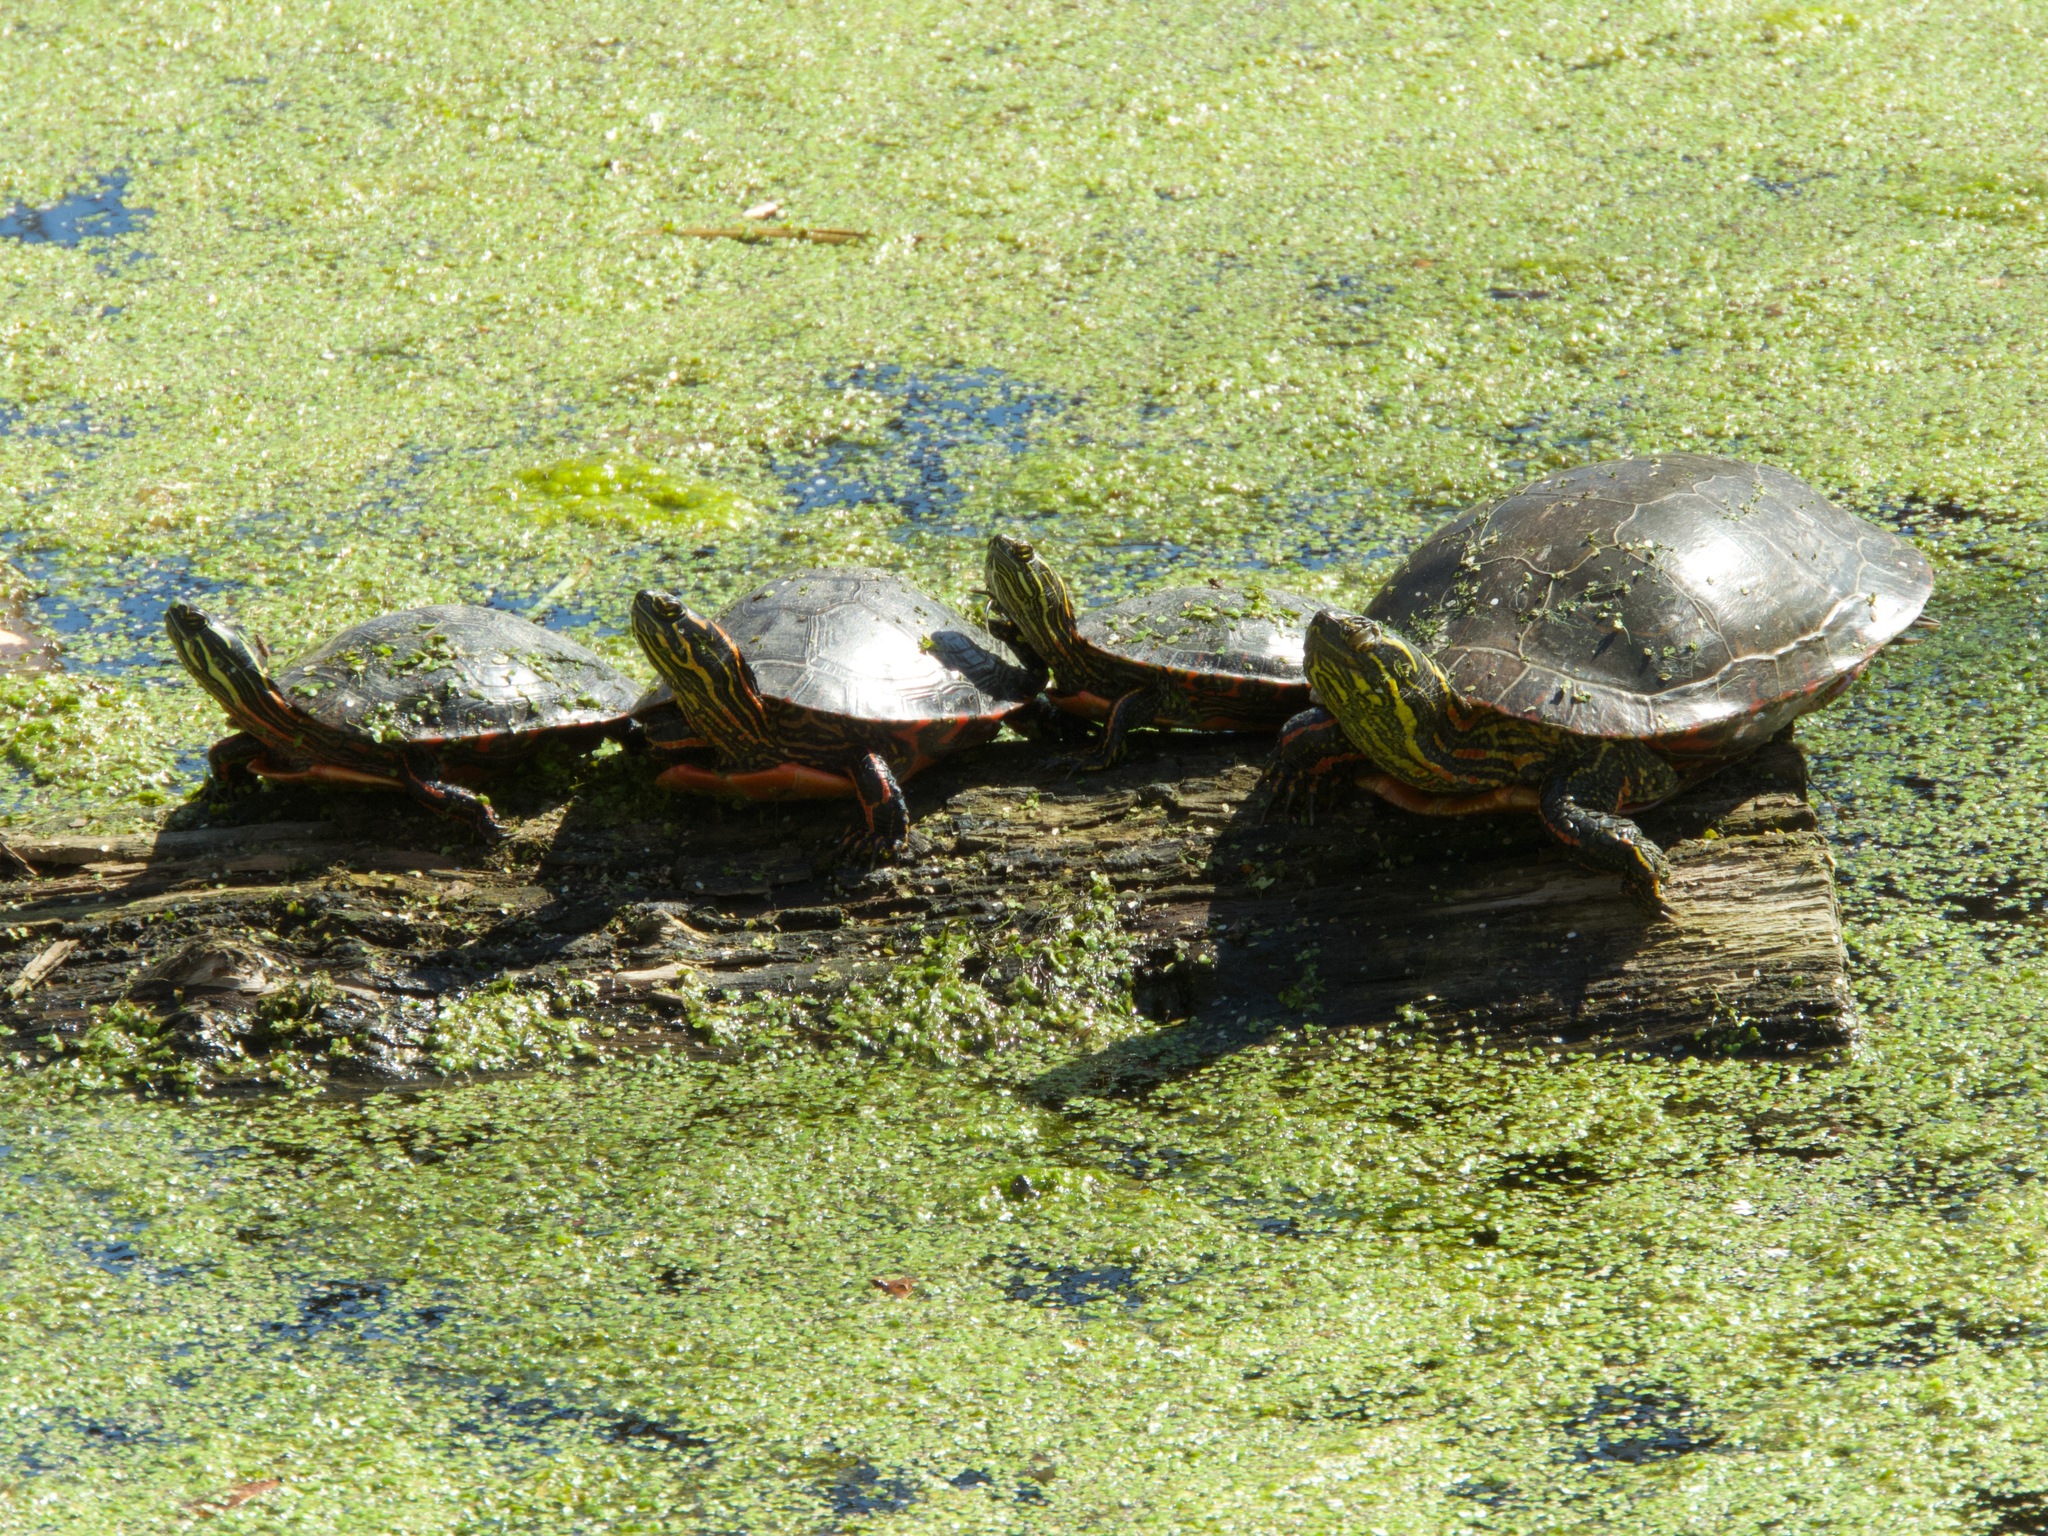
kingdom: Animalia
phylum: Chordata
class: Testudines
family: Emydidae
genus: Chrysemys
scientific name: Chrysemys picta
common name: Painted turtle
